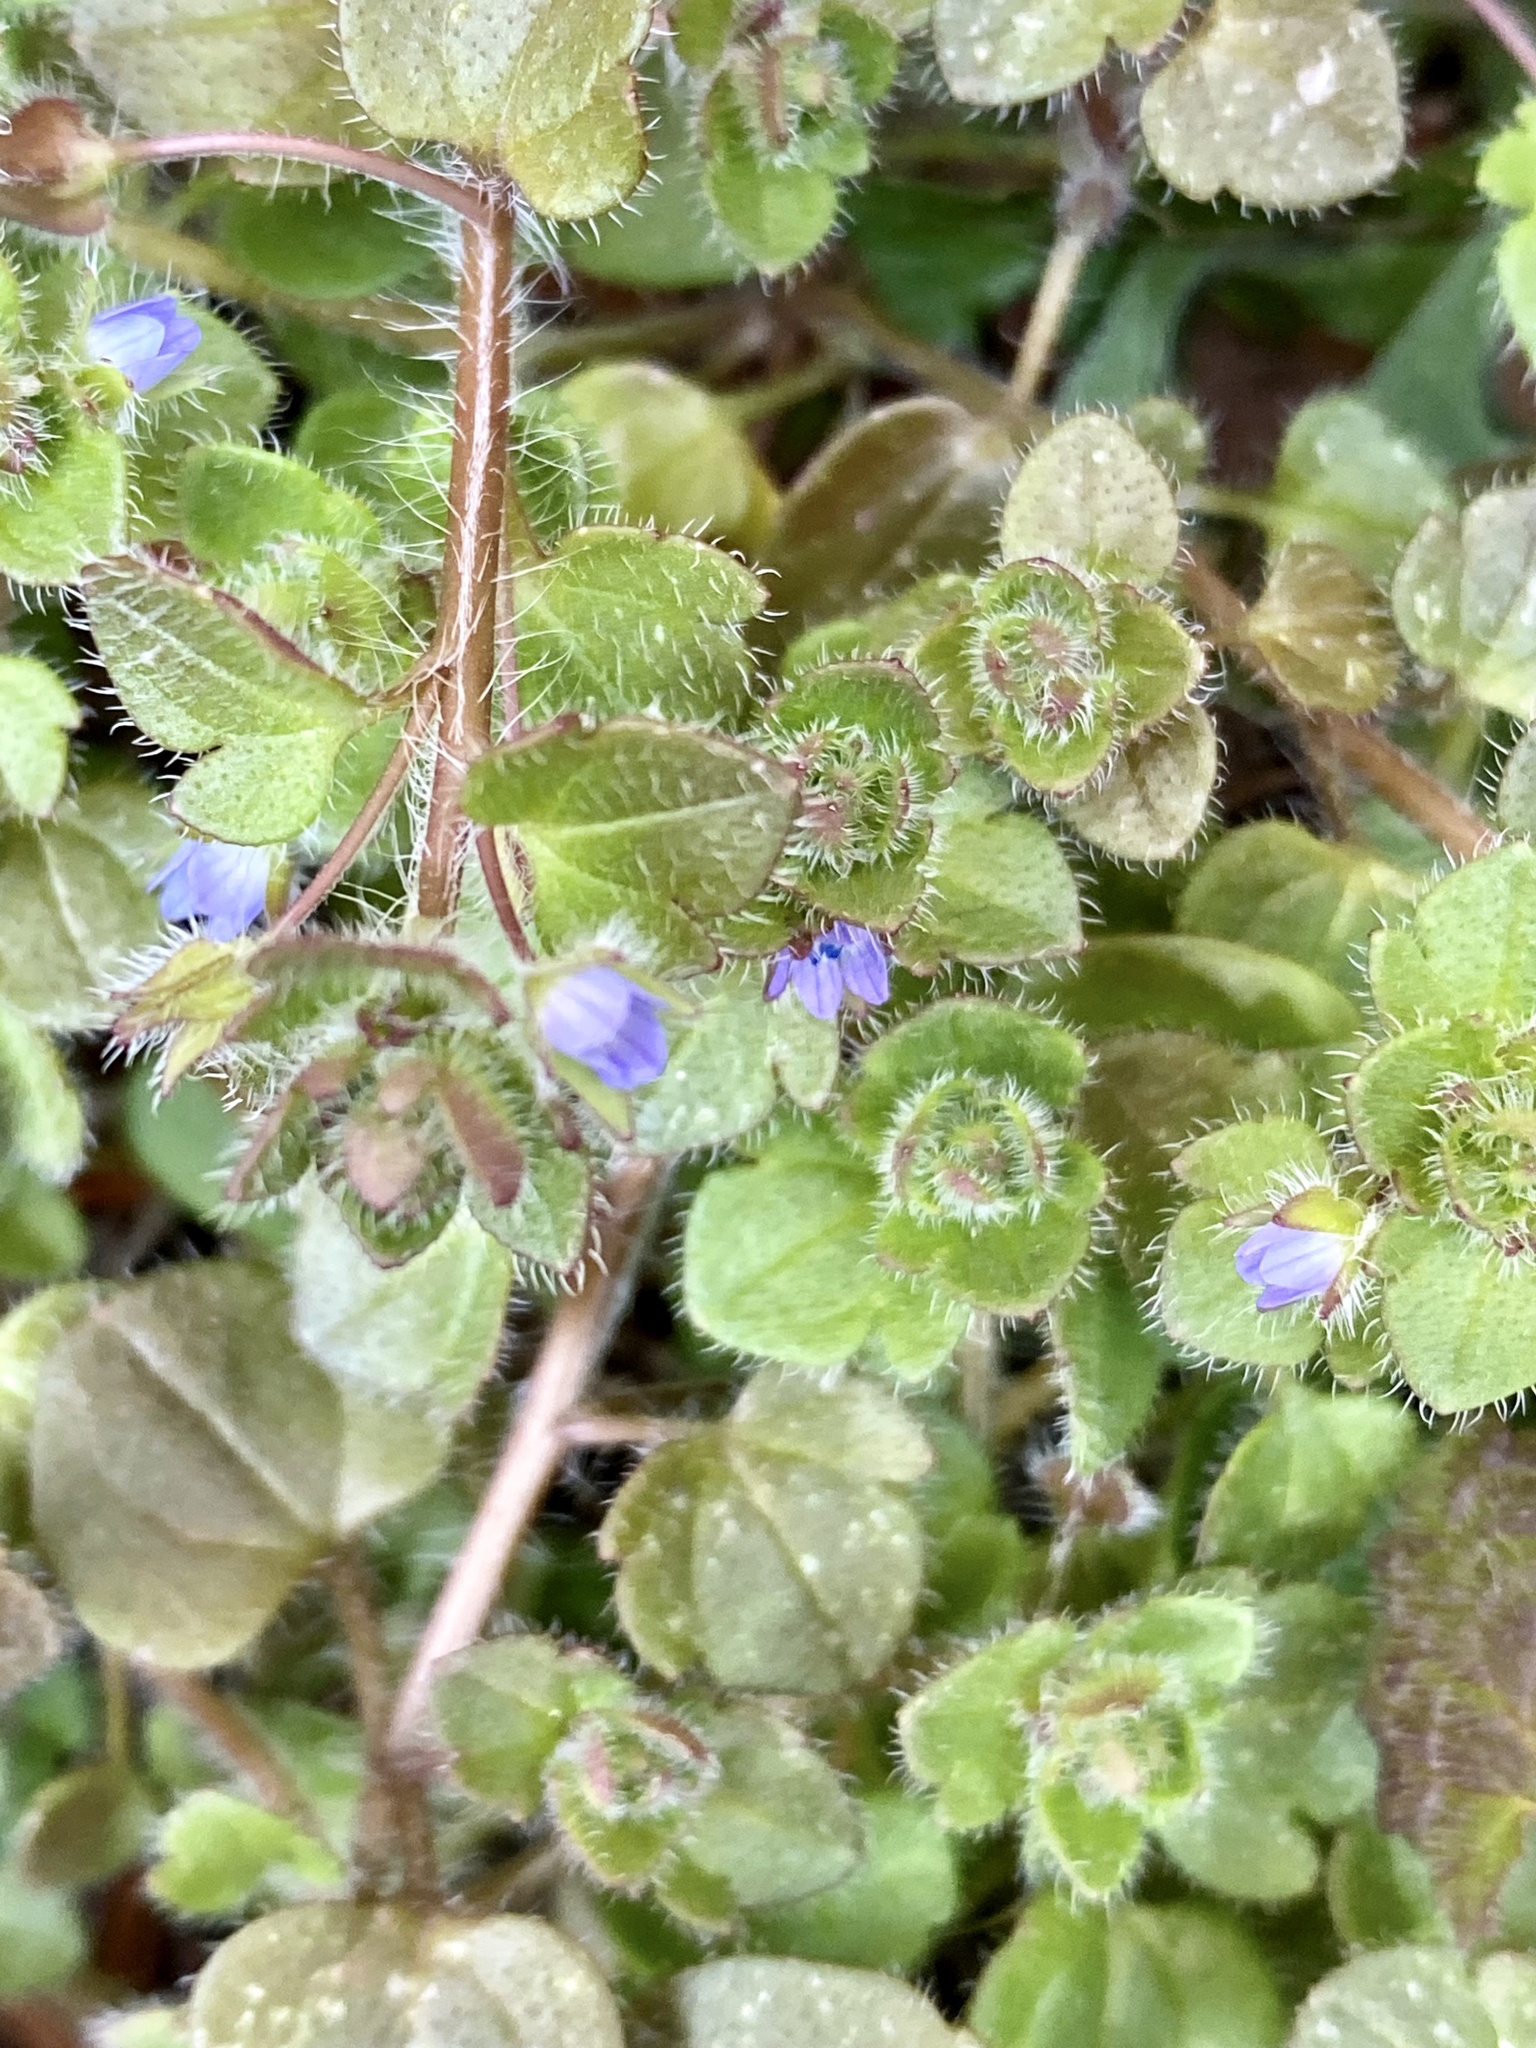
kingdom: Plantae
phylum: Tracheophyta
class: Magnoliopsida
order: Lamiales
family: Plantaginaceae
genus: Veronica
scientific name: Veronica hederifolia
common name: Ivy-leaved speedwell
